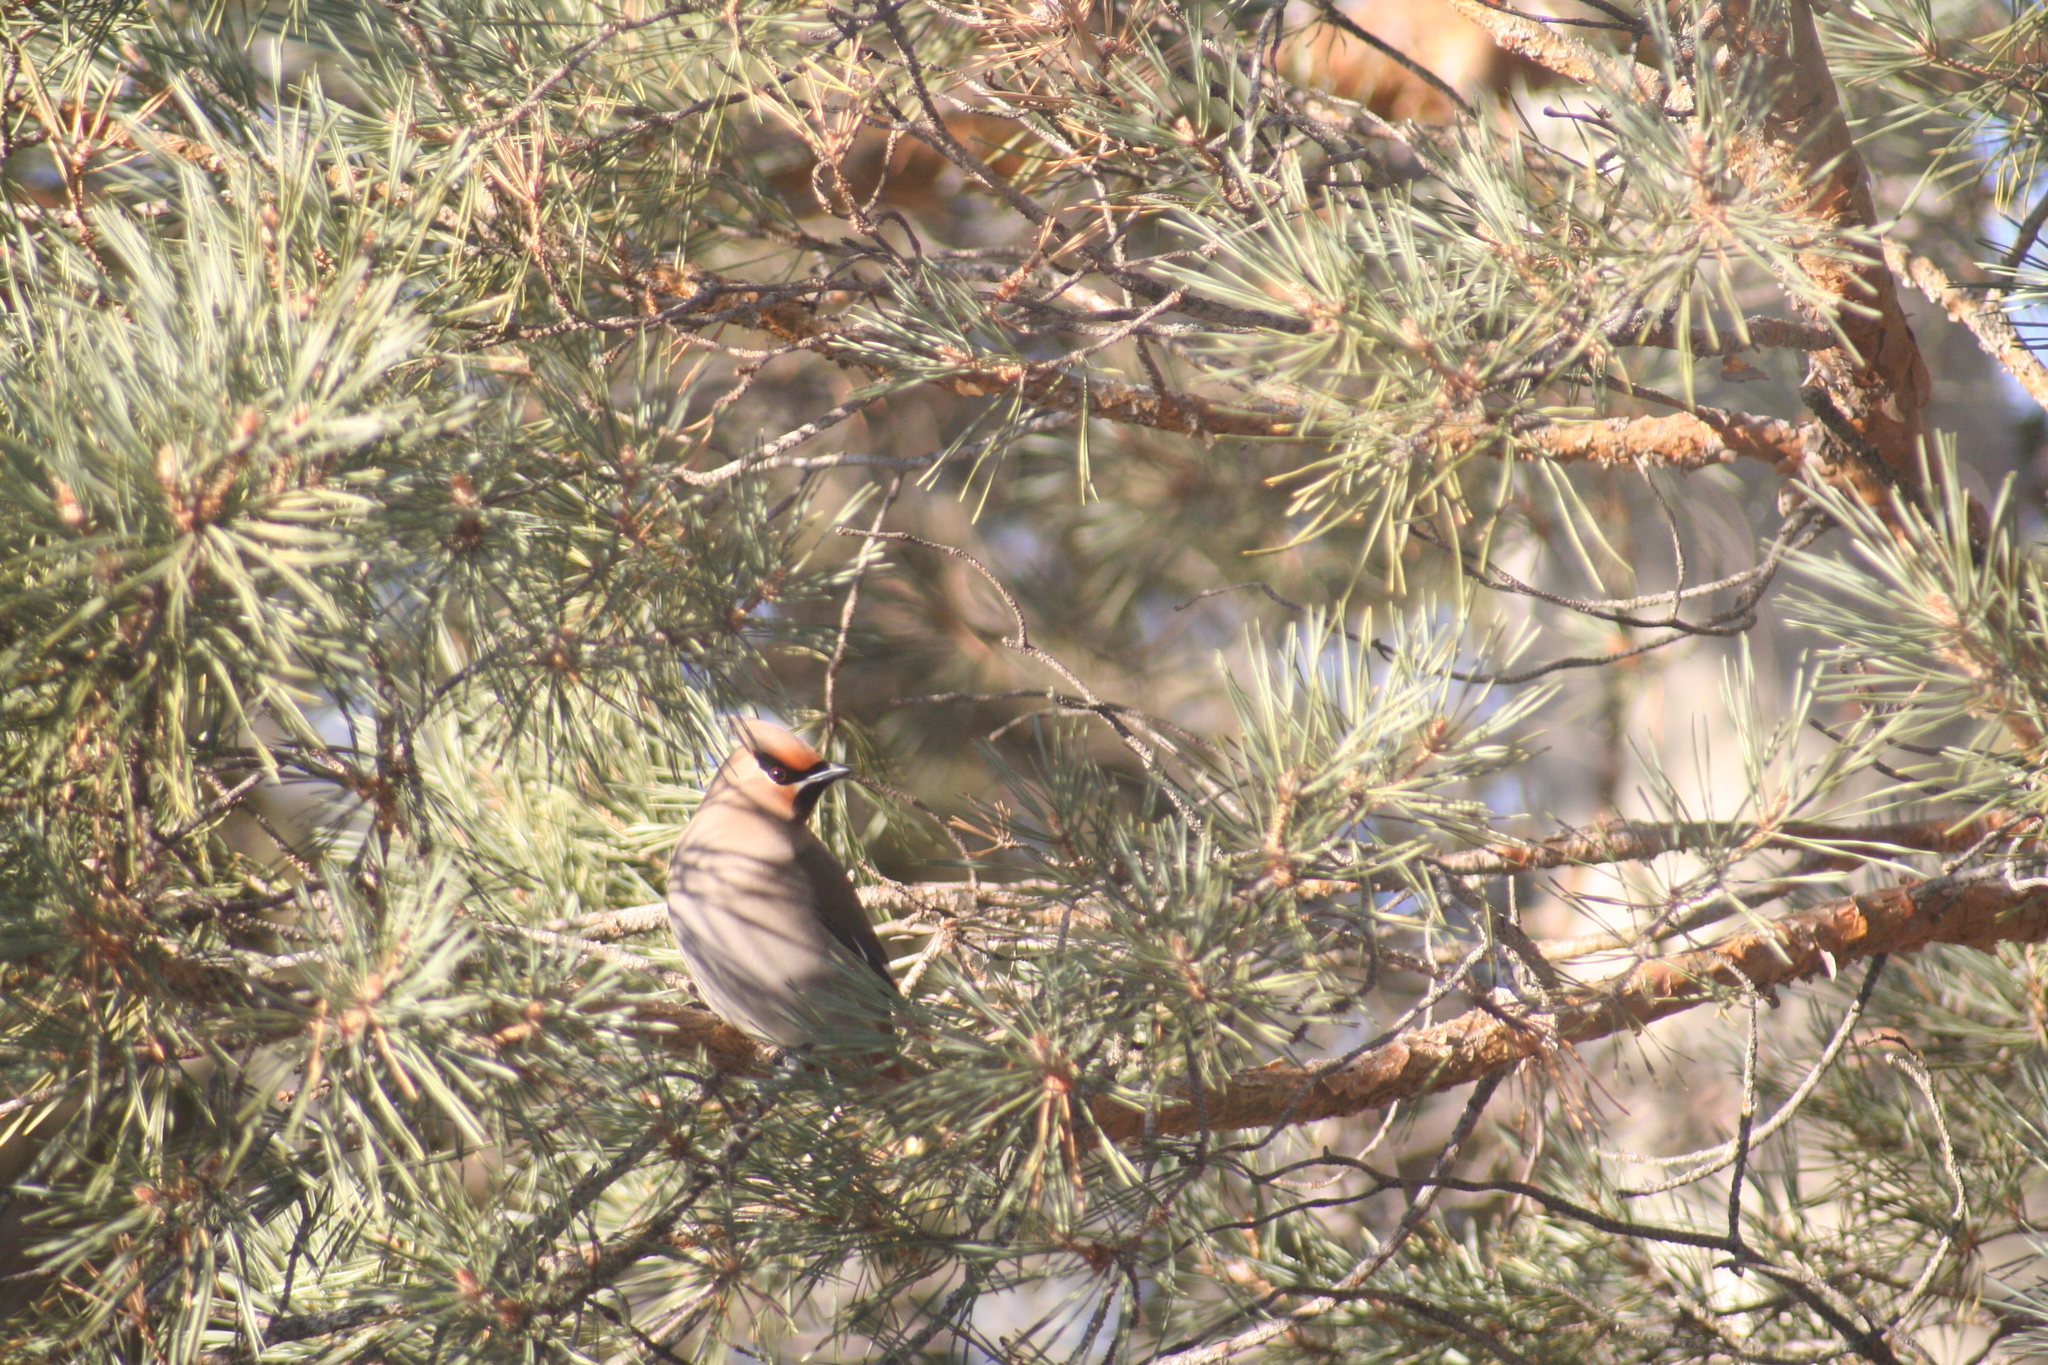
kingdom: Animalia
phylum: Chordata
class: Aves
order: Passeriformes
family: Bombycillidae
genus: Bombycilla
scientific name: Bombycilla garrulus
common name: Bohemian waxwing
